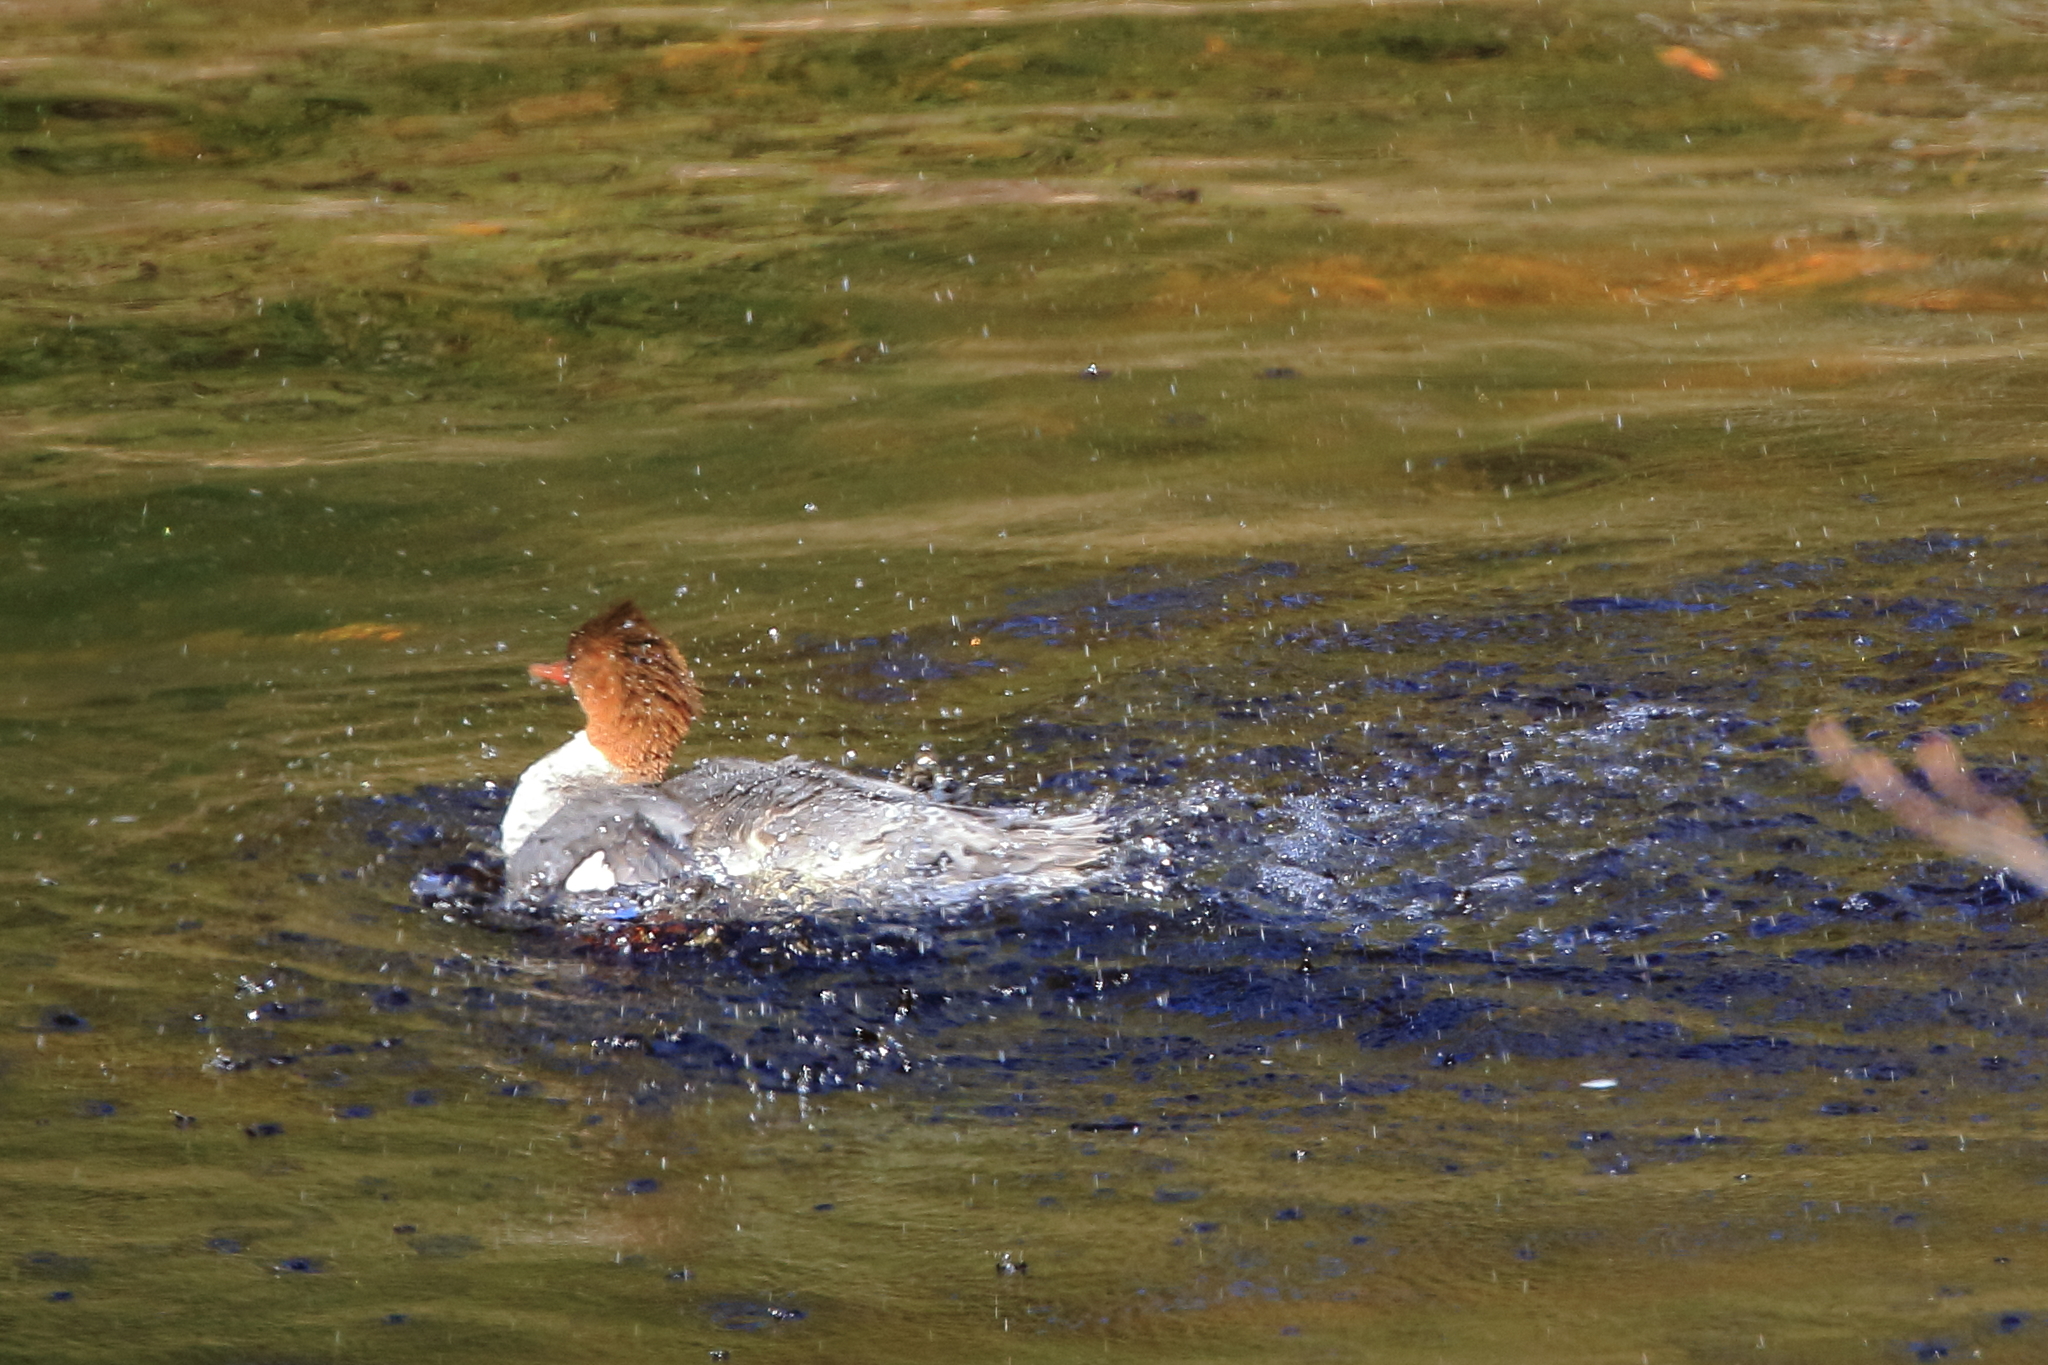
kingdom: Animalia
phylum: Chordata
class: Aves
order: Anseriformes
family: Anatidae
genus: Mergus
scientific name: Mergus merganser
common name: Common merganser
